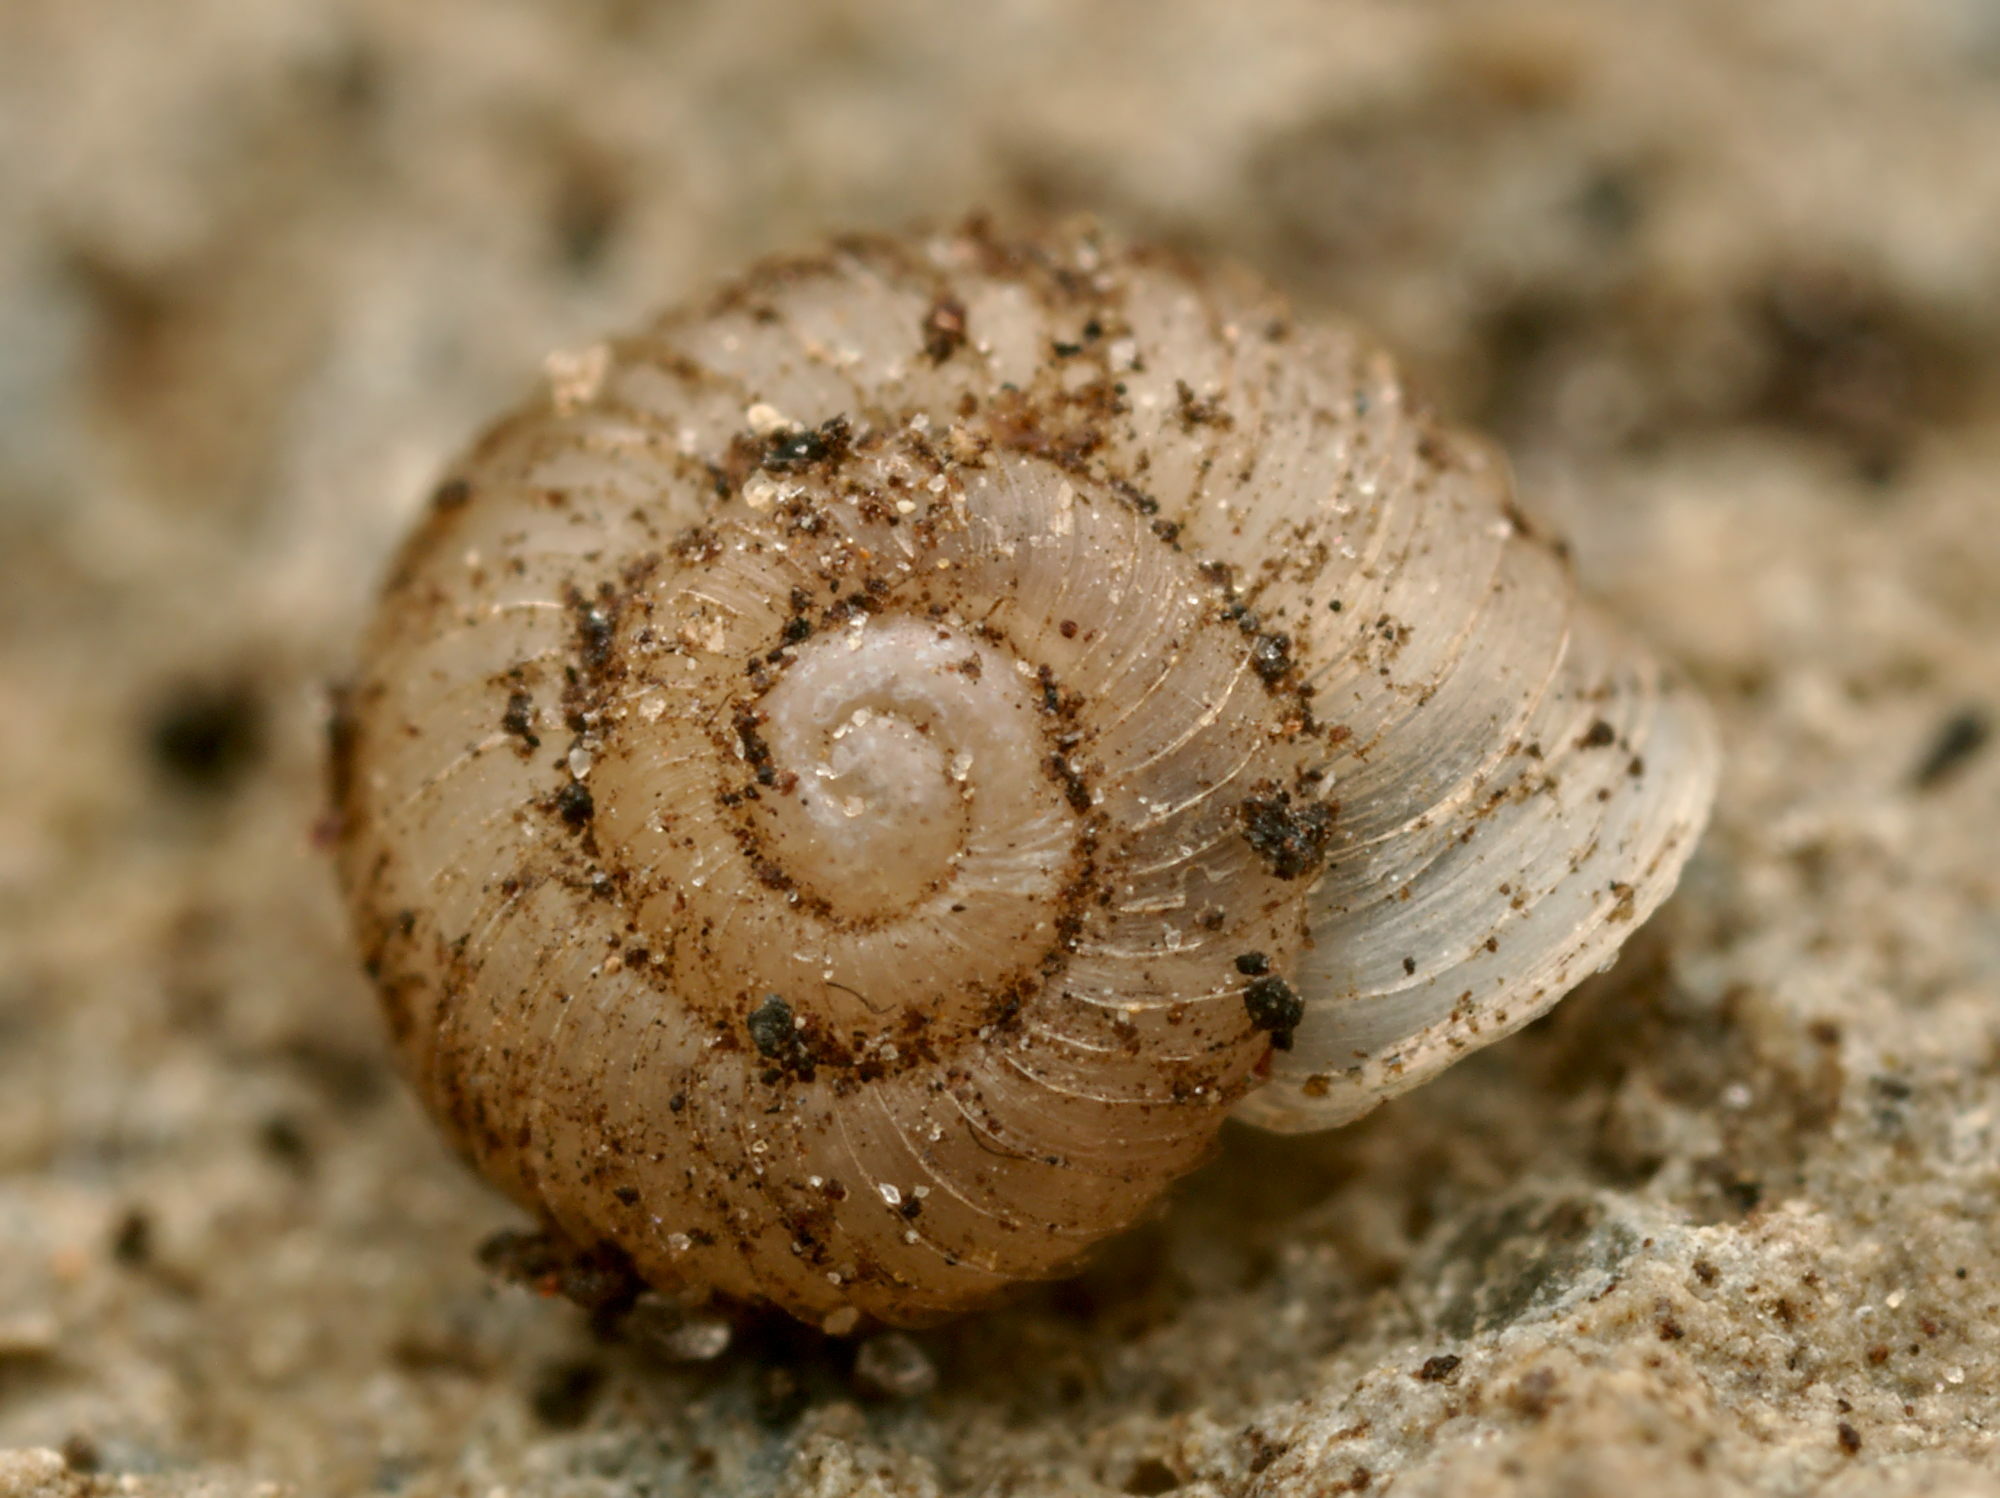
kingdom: Animalia
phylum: Mollusca
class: Gastropoda
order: Stylommatophora
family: Valloniidae
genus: Vallonia
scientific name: Vallonia costata
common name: Ribbed grass snail
